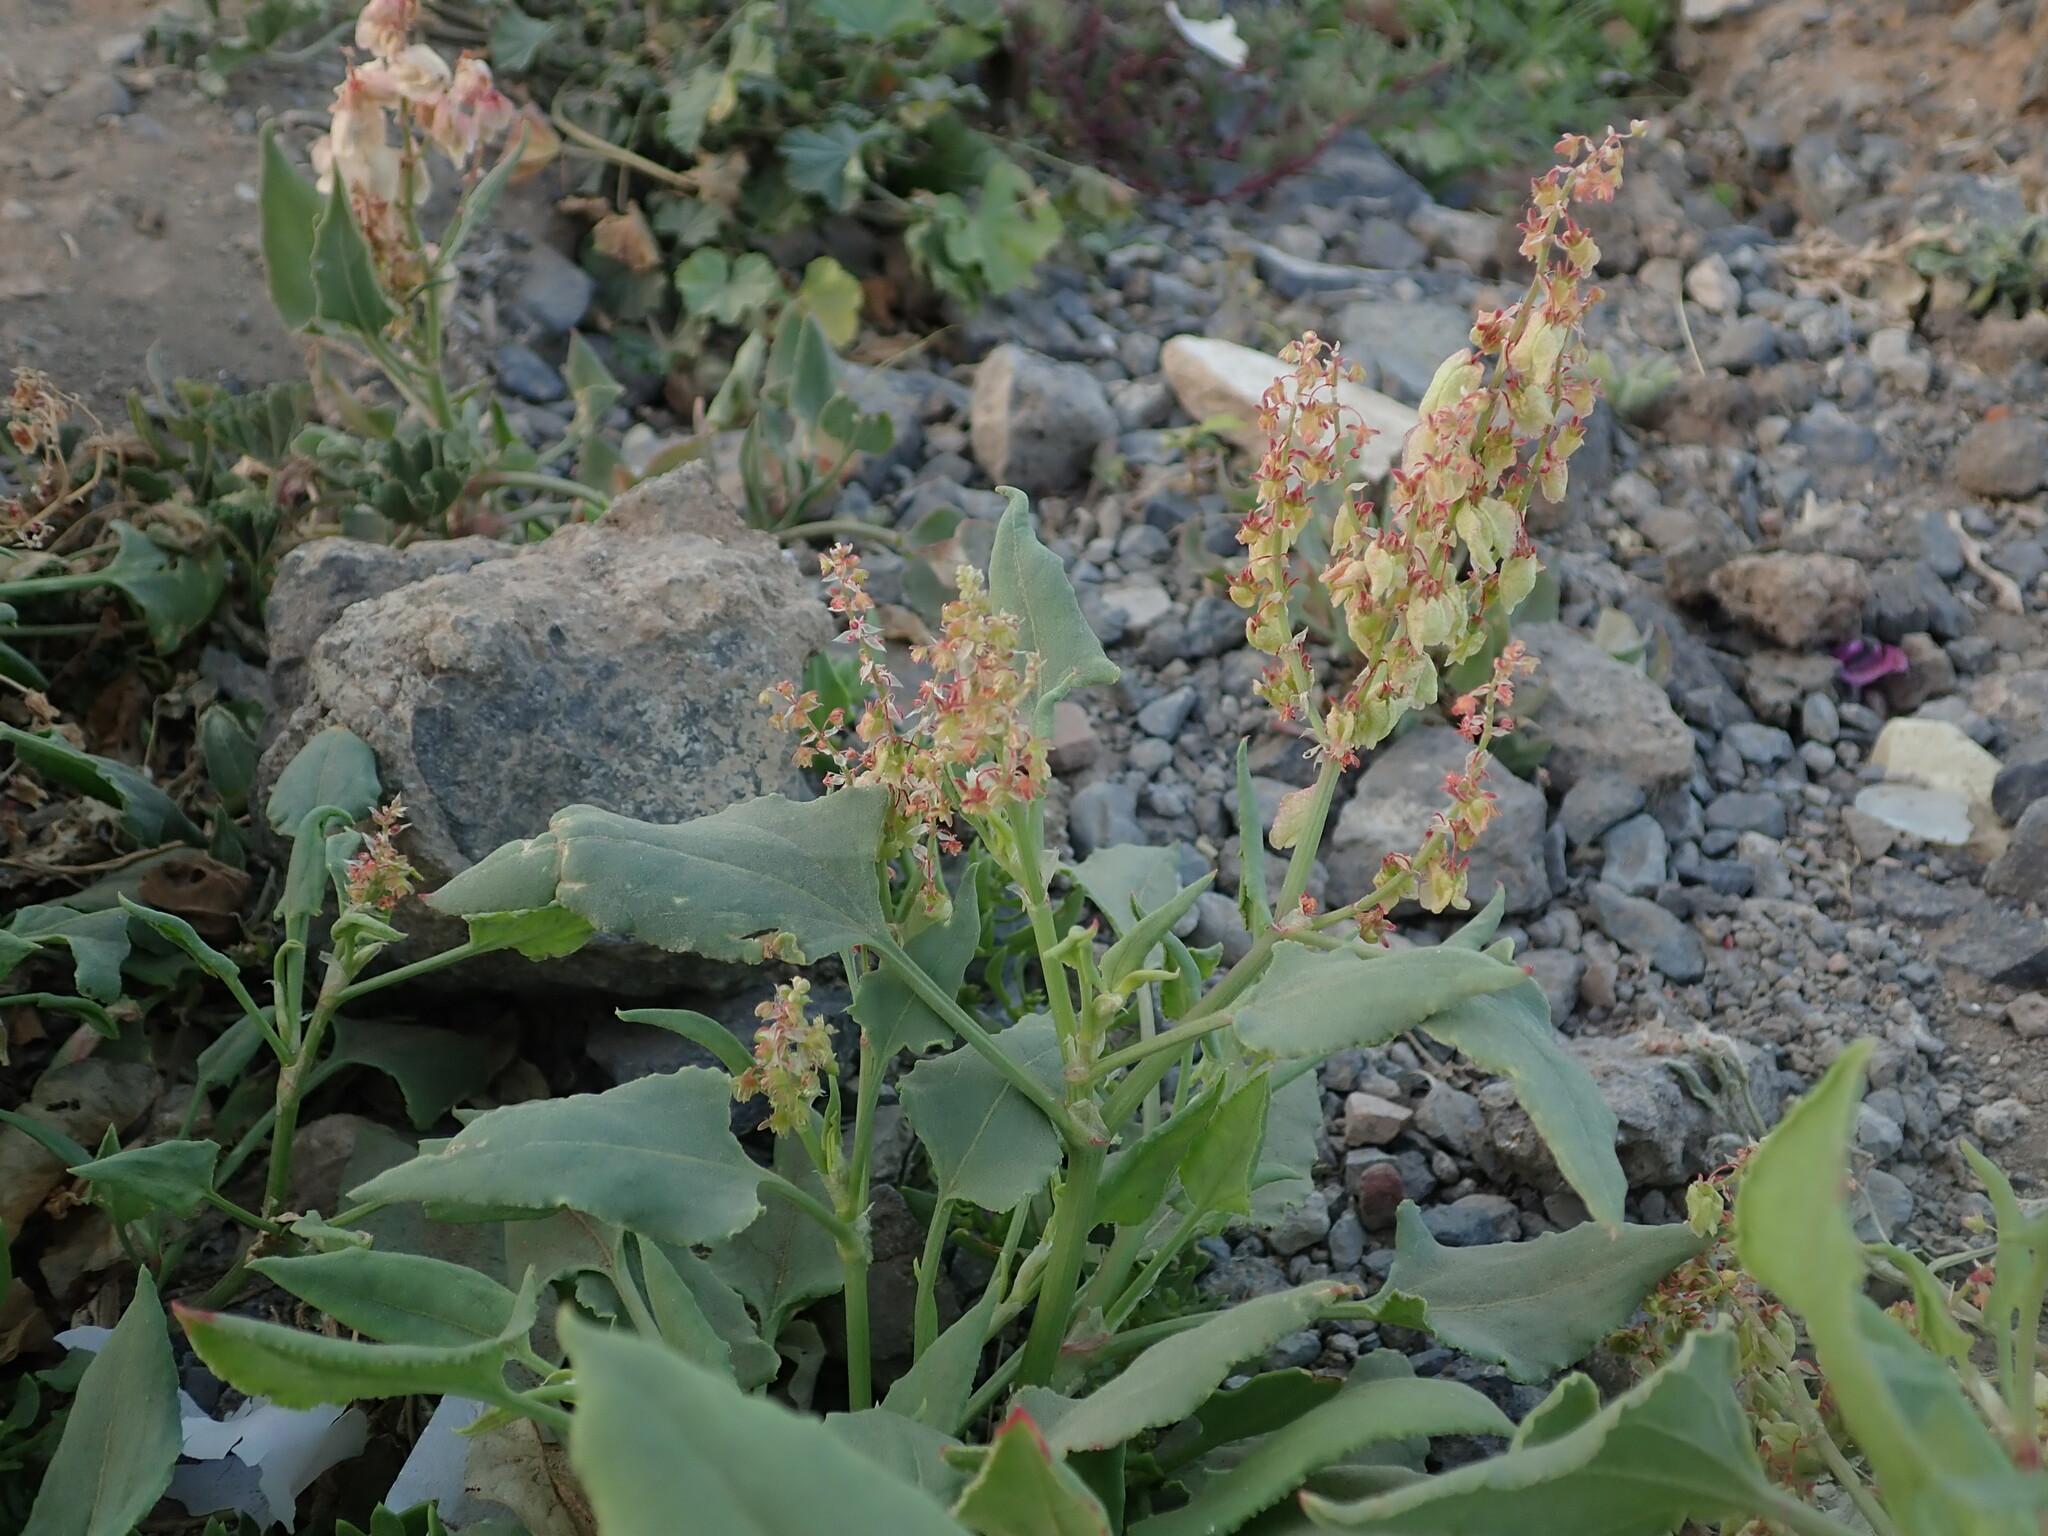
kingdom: Plantae
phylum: Tracheophyta
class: Magnoliopsida
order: Caryophyllales
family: Polygonaceae
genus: Rumex
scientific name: Rumex vesicarius
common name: Bladder dock
